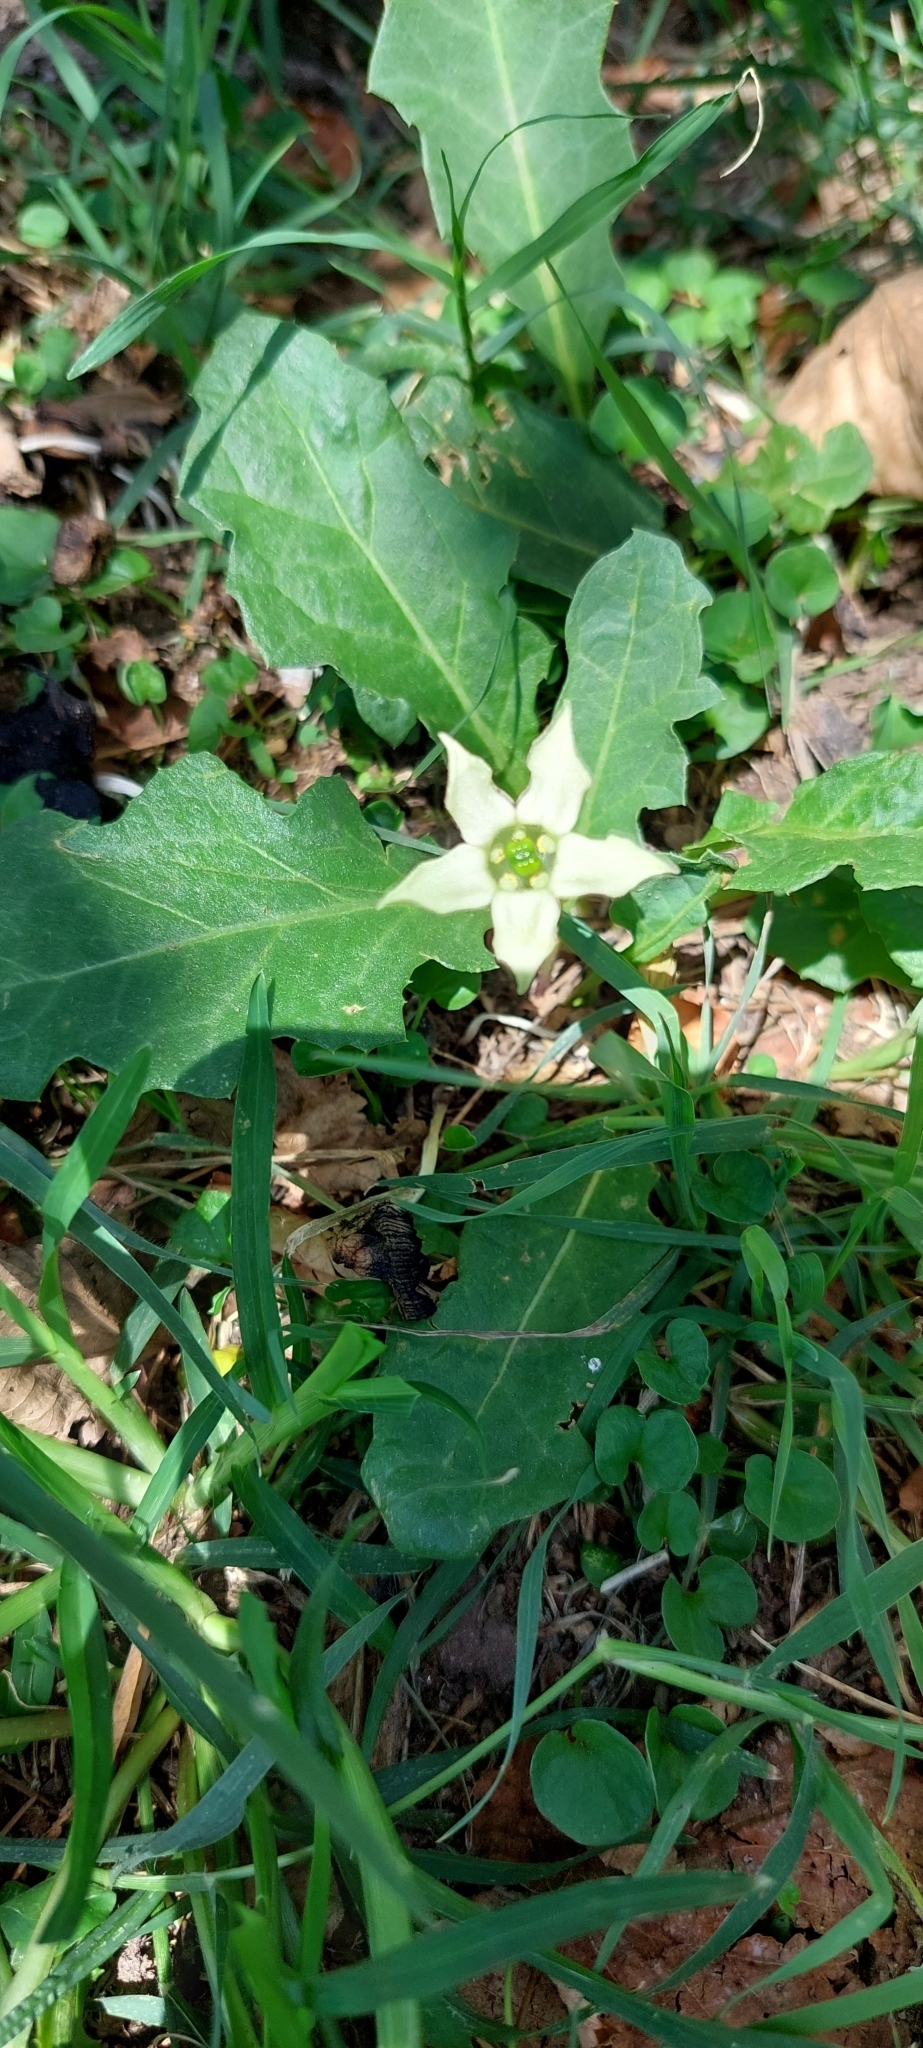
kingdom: Plantae
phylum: Tracheophyta
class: Magnoliopsida
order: Solanales
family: Solanaceae
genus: Jaborosa
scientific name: Jaborosa runcinata
